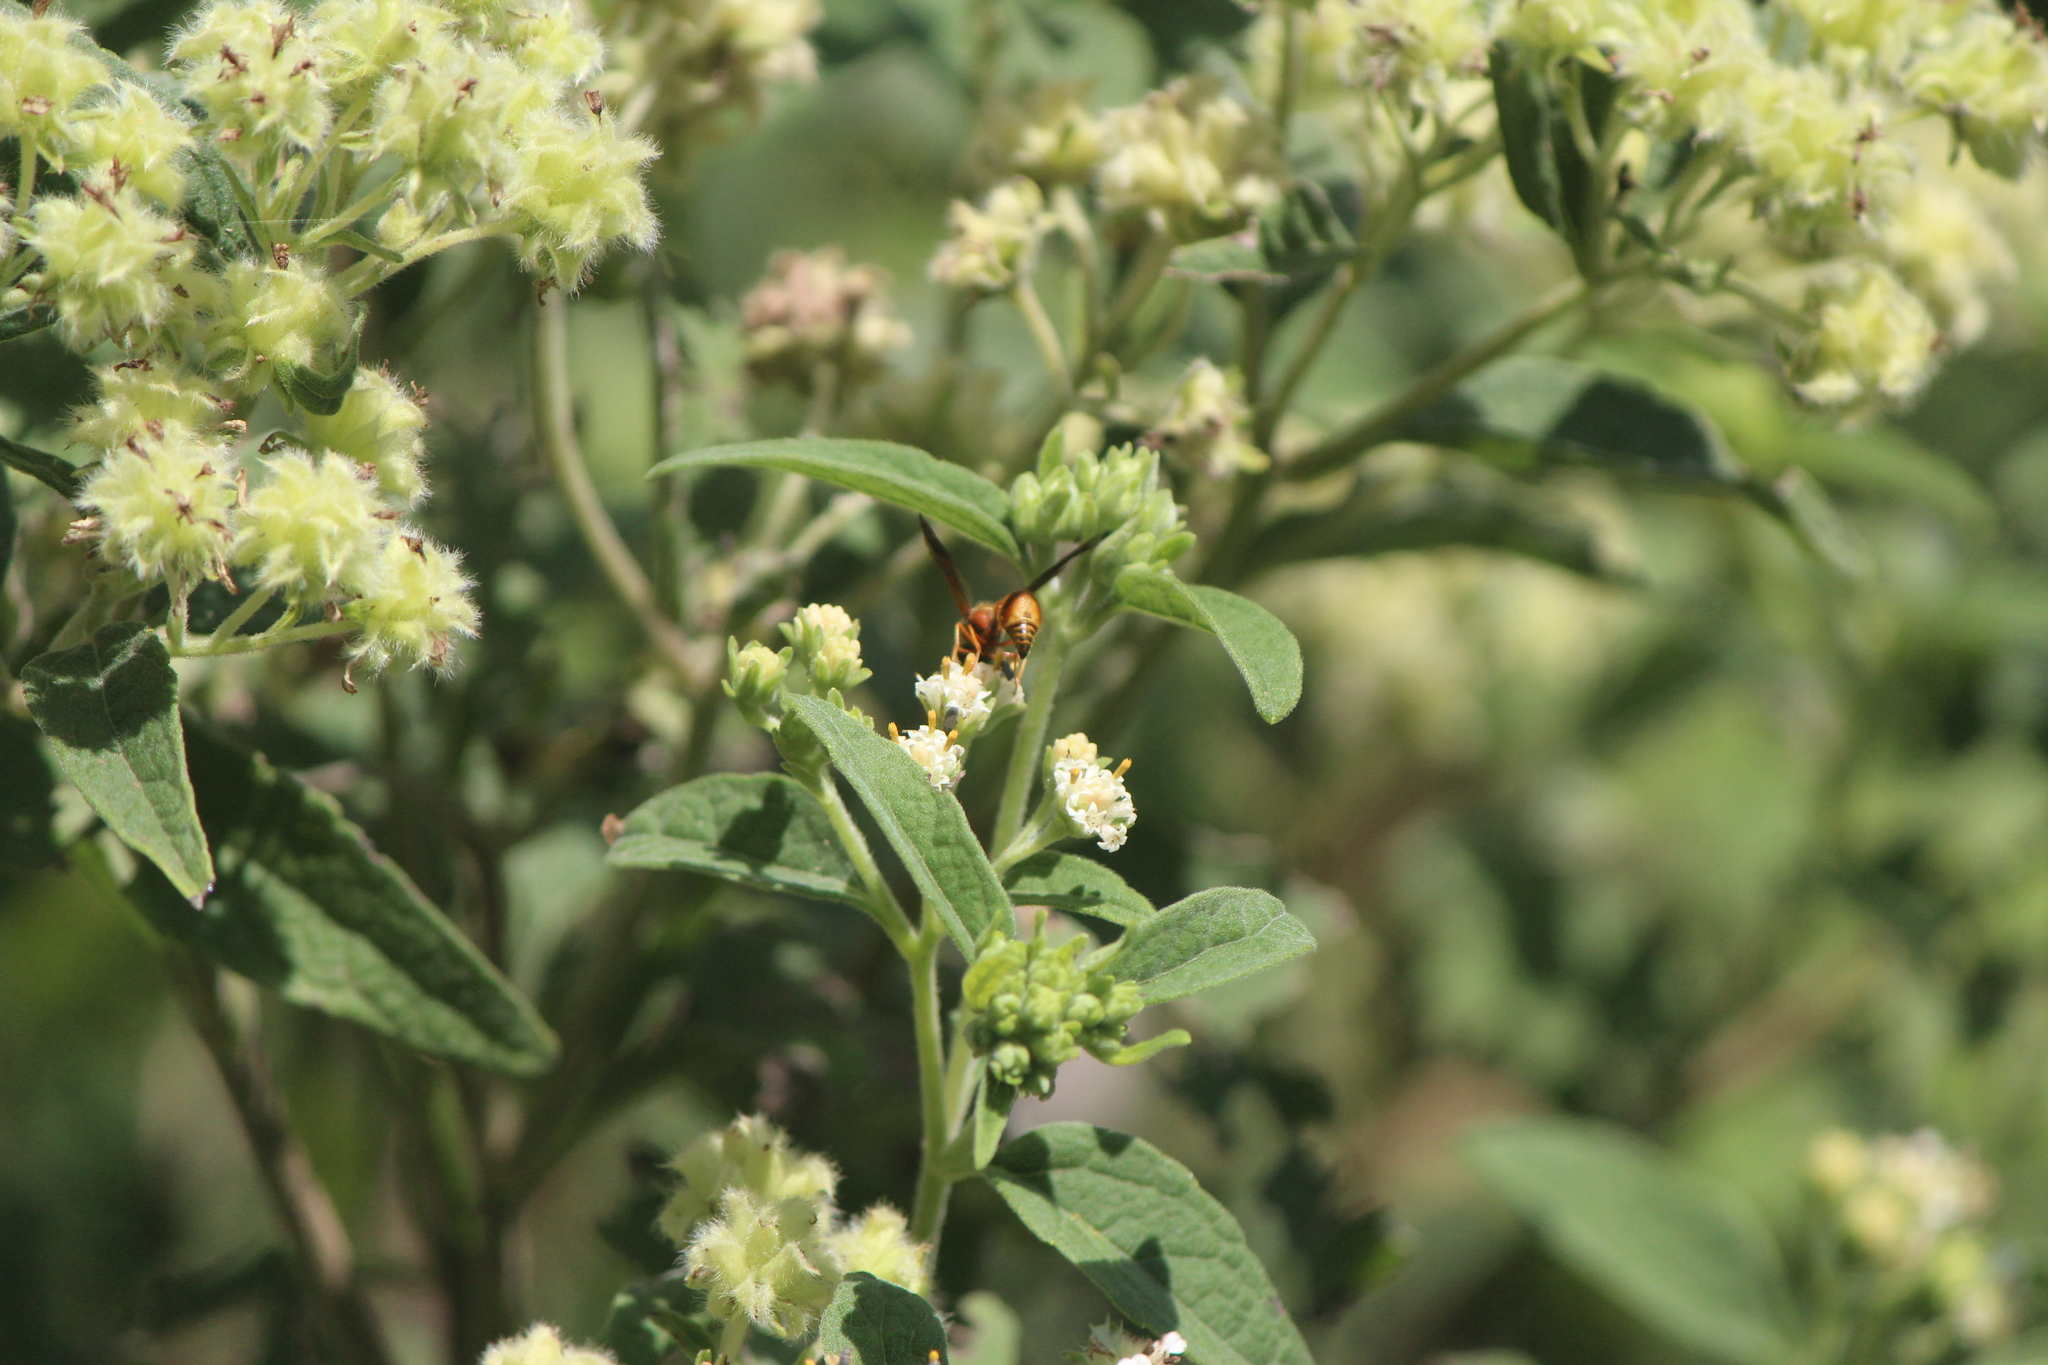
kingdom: Animalia
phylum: Arthropoda
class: Insecta
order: Hymenoptera
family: Vespidae
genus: Eumenes
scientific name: Eumenes bollii
